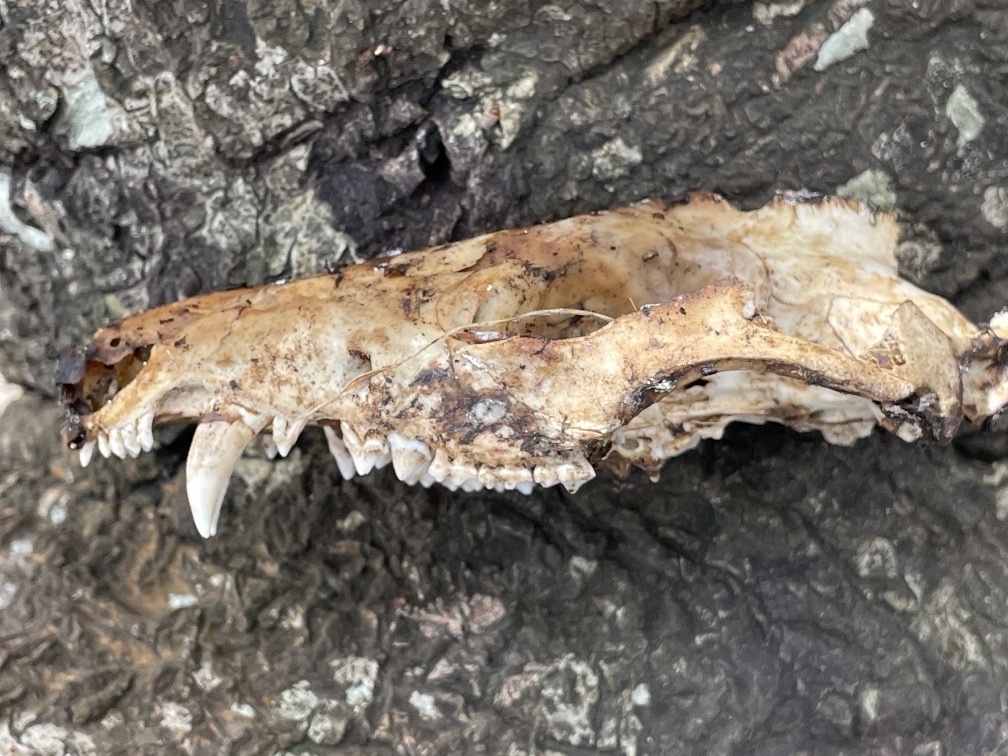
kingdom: Animalia
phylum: Chordata
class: Mammalia
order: Didelphimorphia
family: Didelphidae
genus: Didelphis
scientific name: Didelphis virginiana
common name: Virginia opossum
